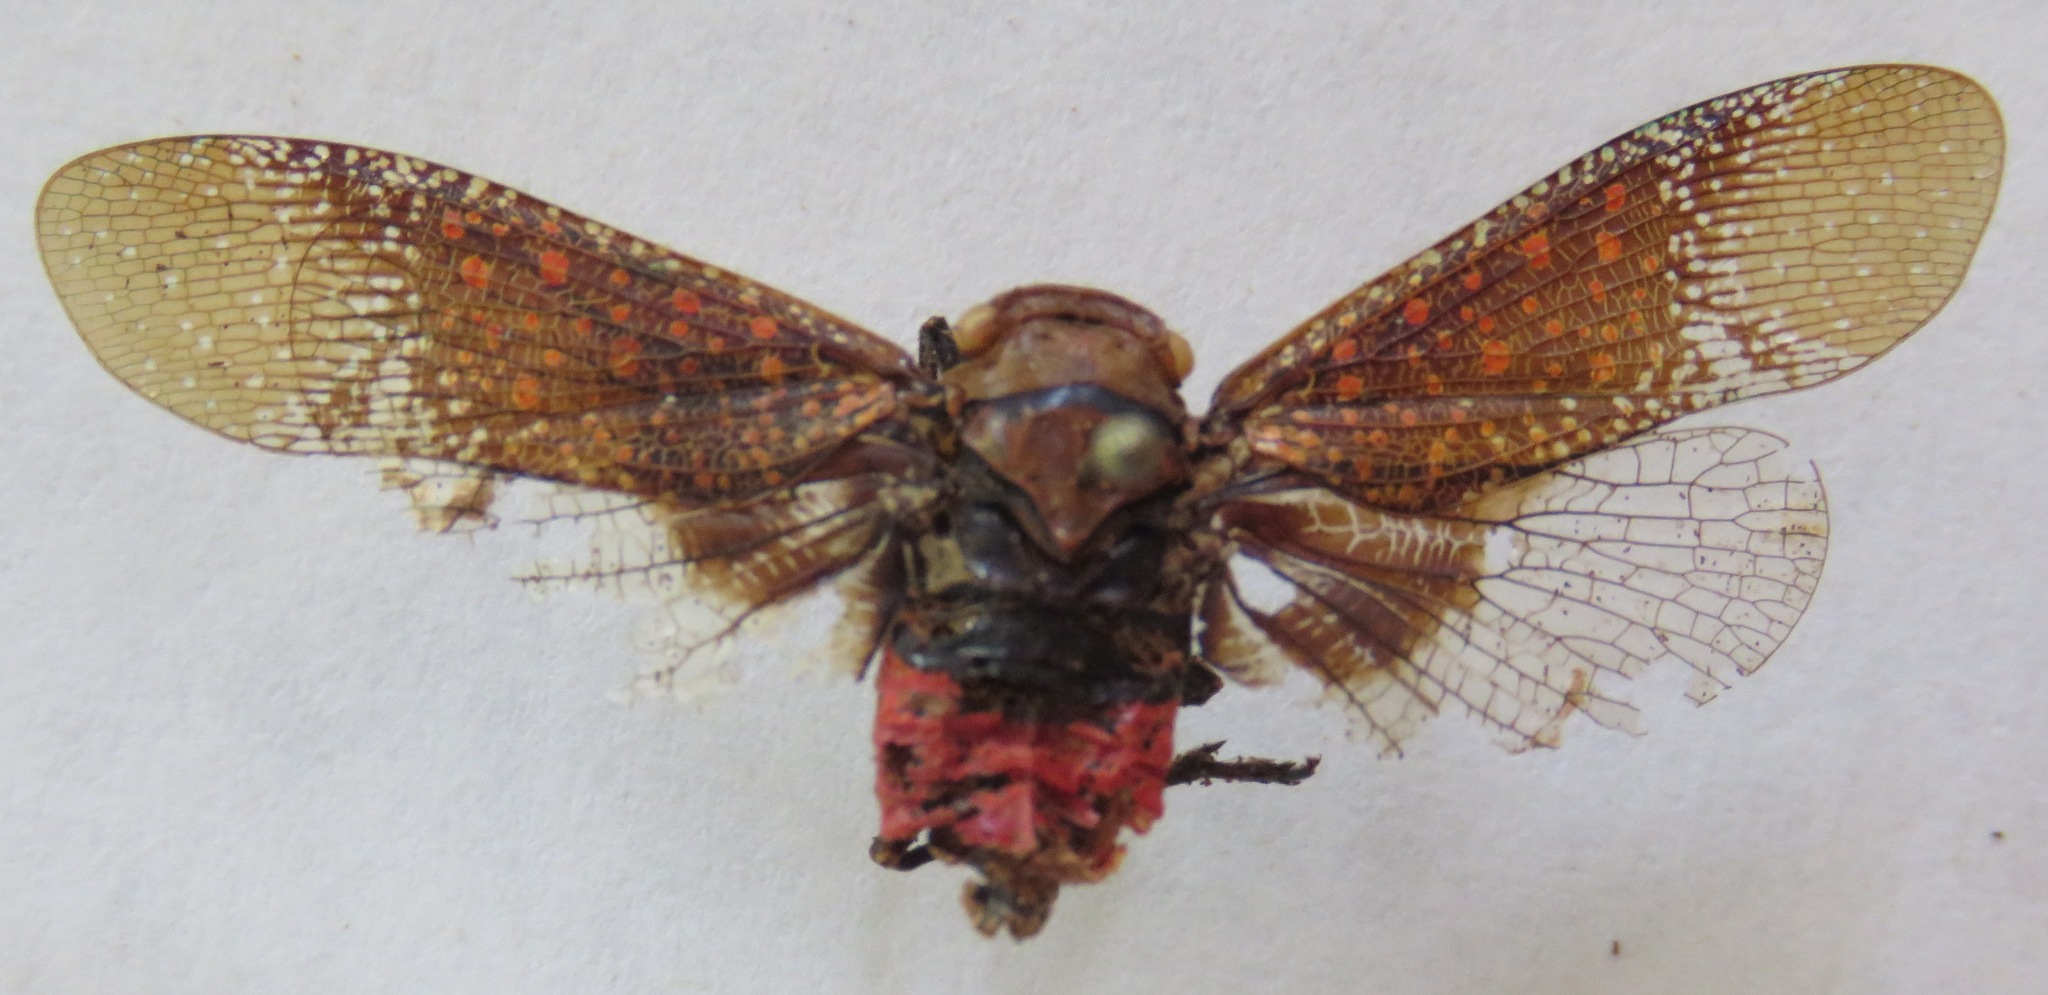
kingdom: Animalia
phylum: Arthropoda
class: Insecta
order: Hemiptera
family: Fulgoridae
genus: Alaruasa
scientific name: Alaruasa
